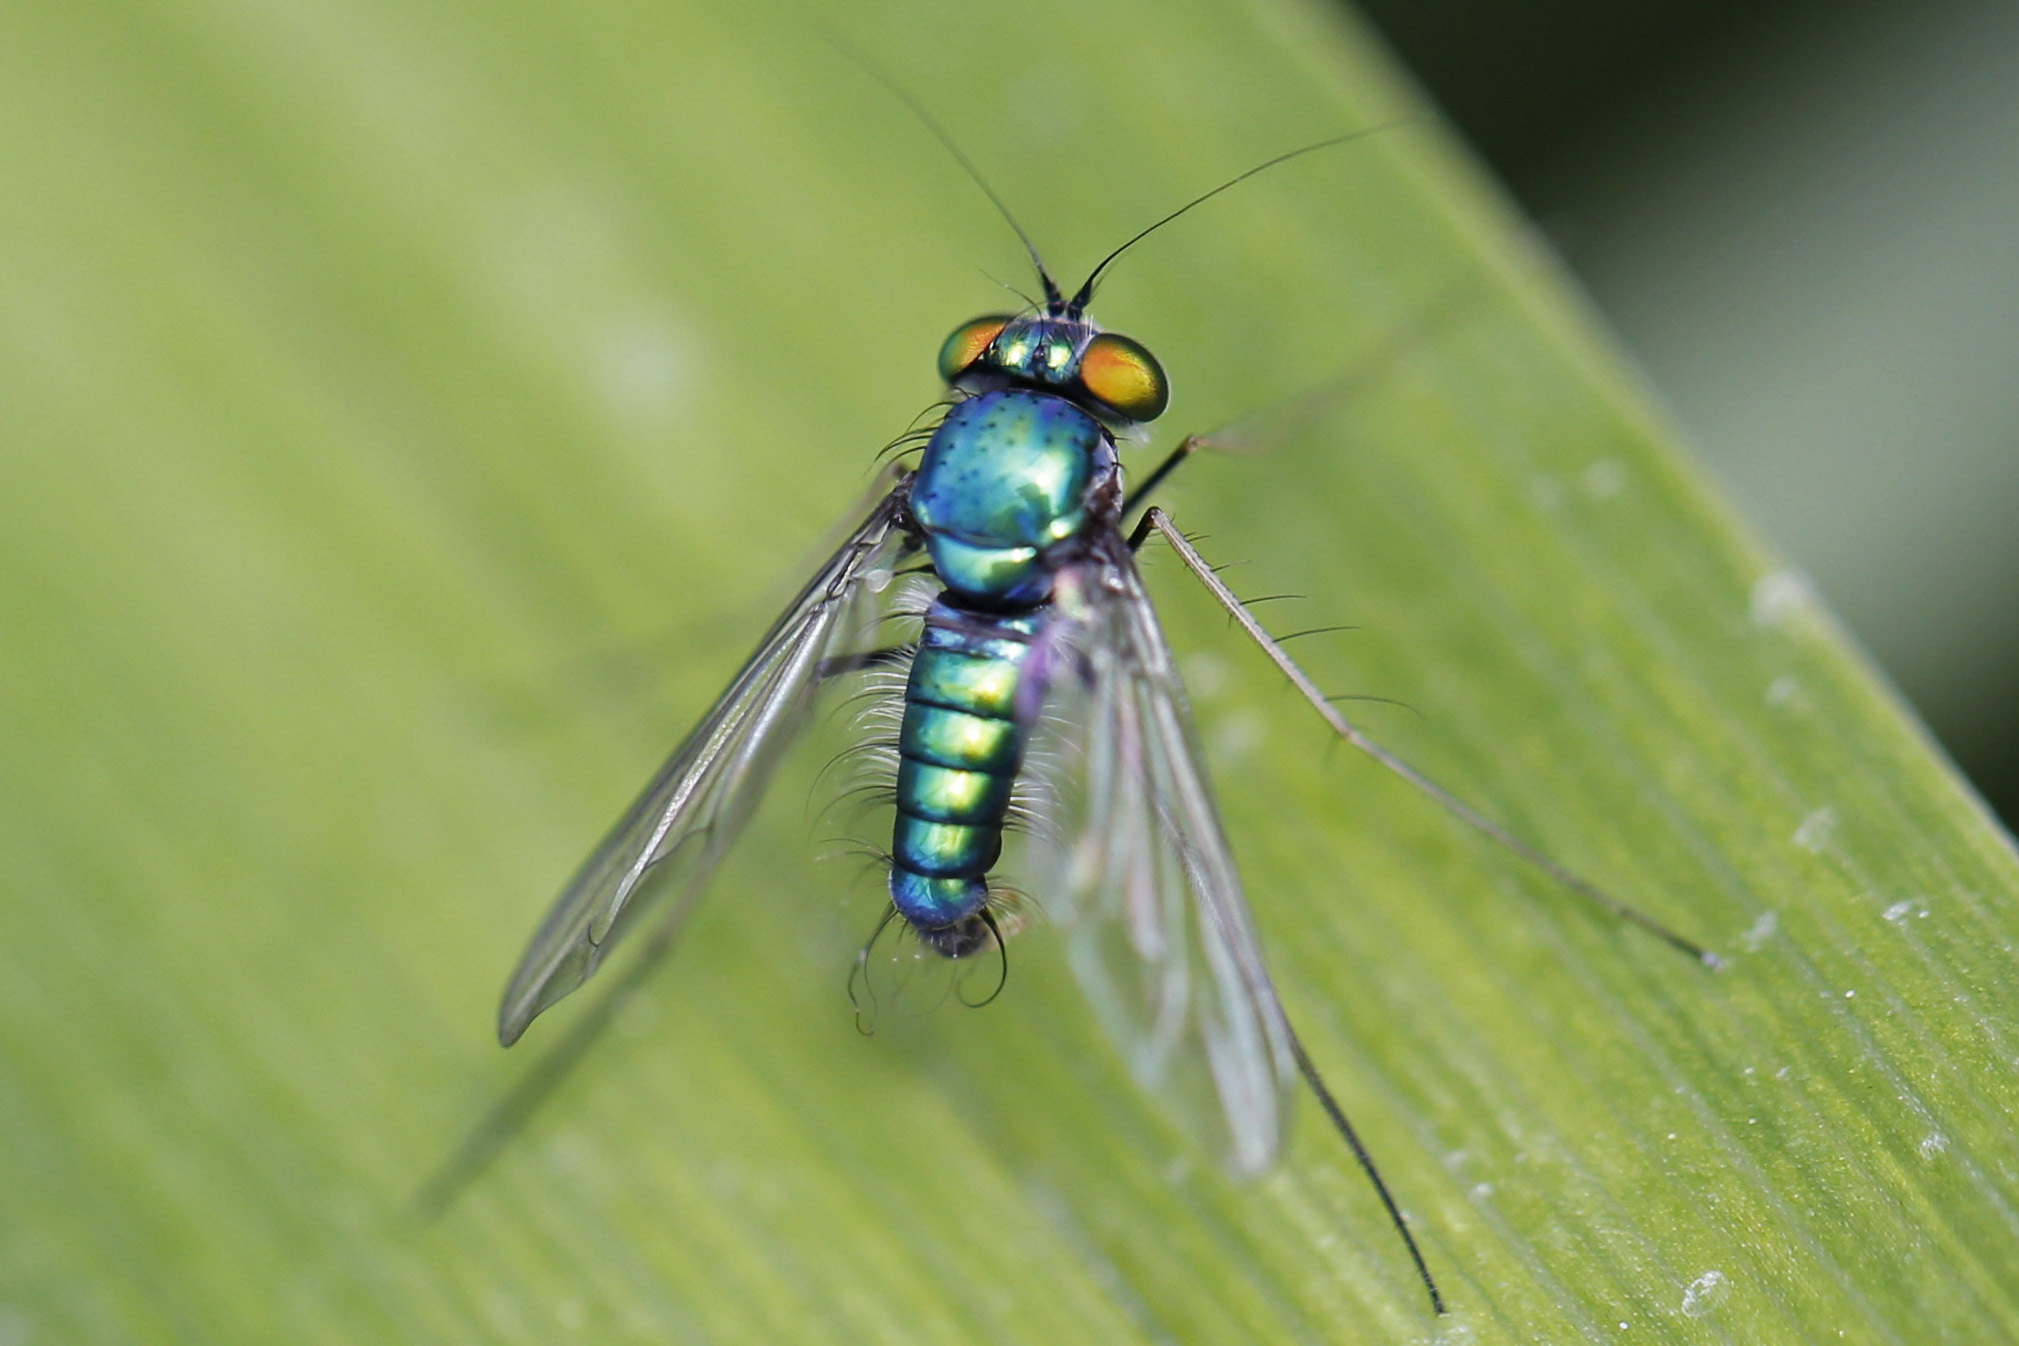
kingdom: Animalia
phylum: Arthropoda
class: Insecta
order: Diptera
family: Dolichopodidae
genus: Condylostylus
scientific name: Condylostylus comatus
